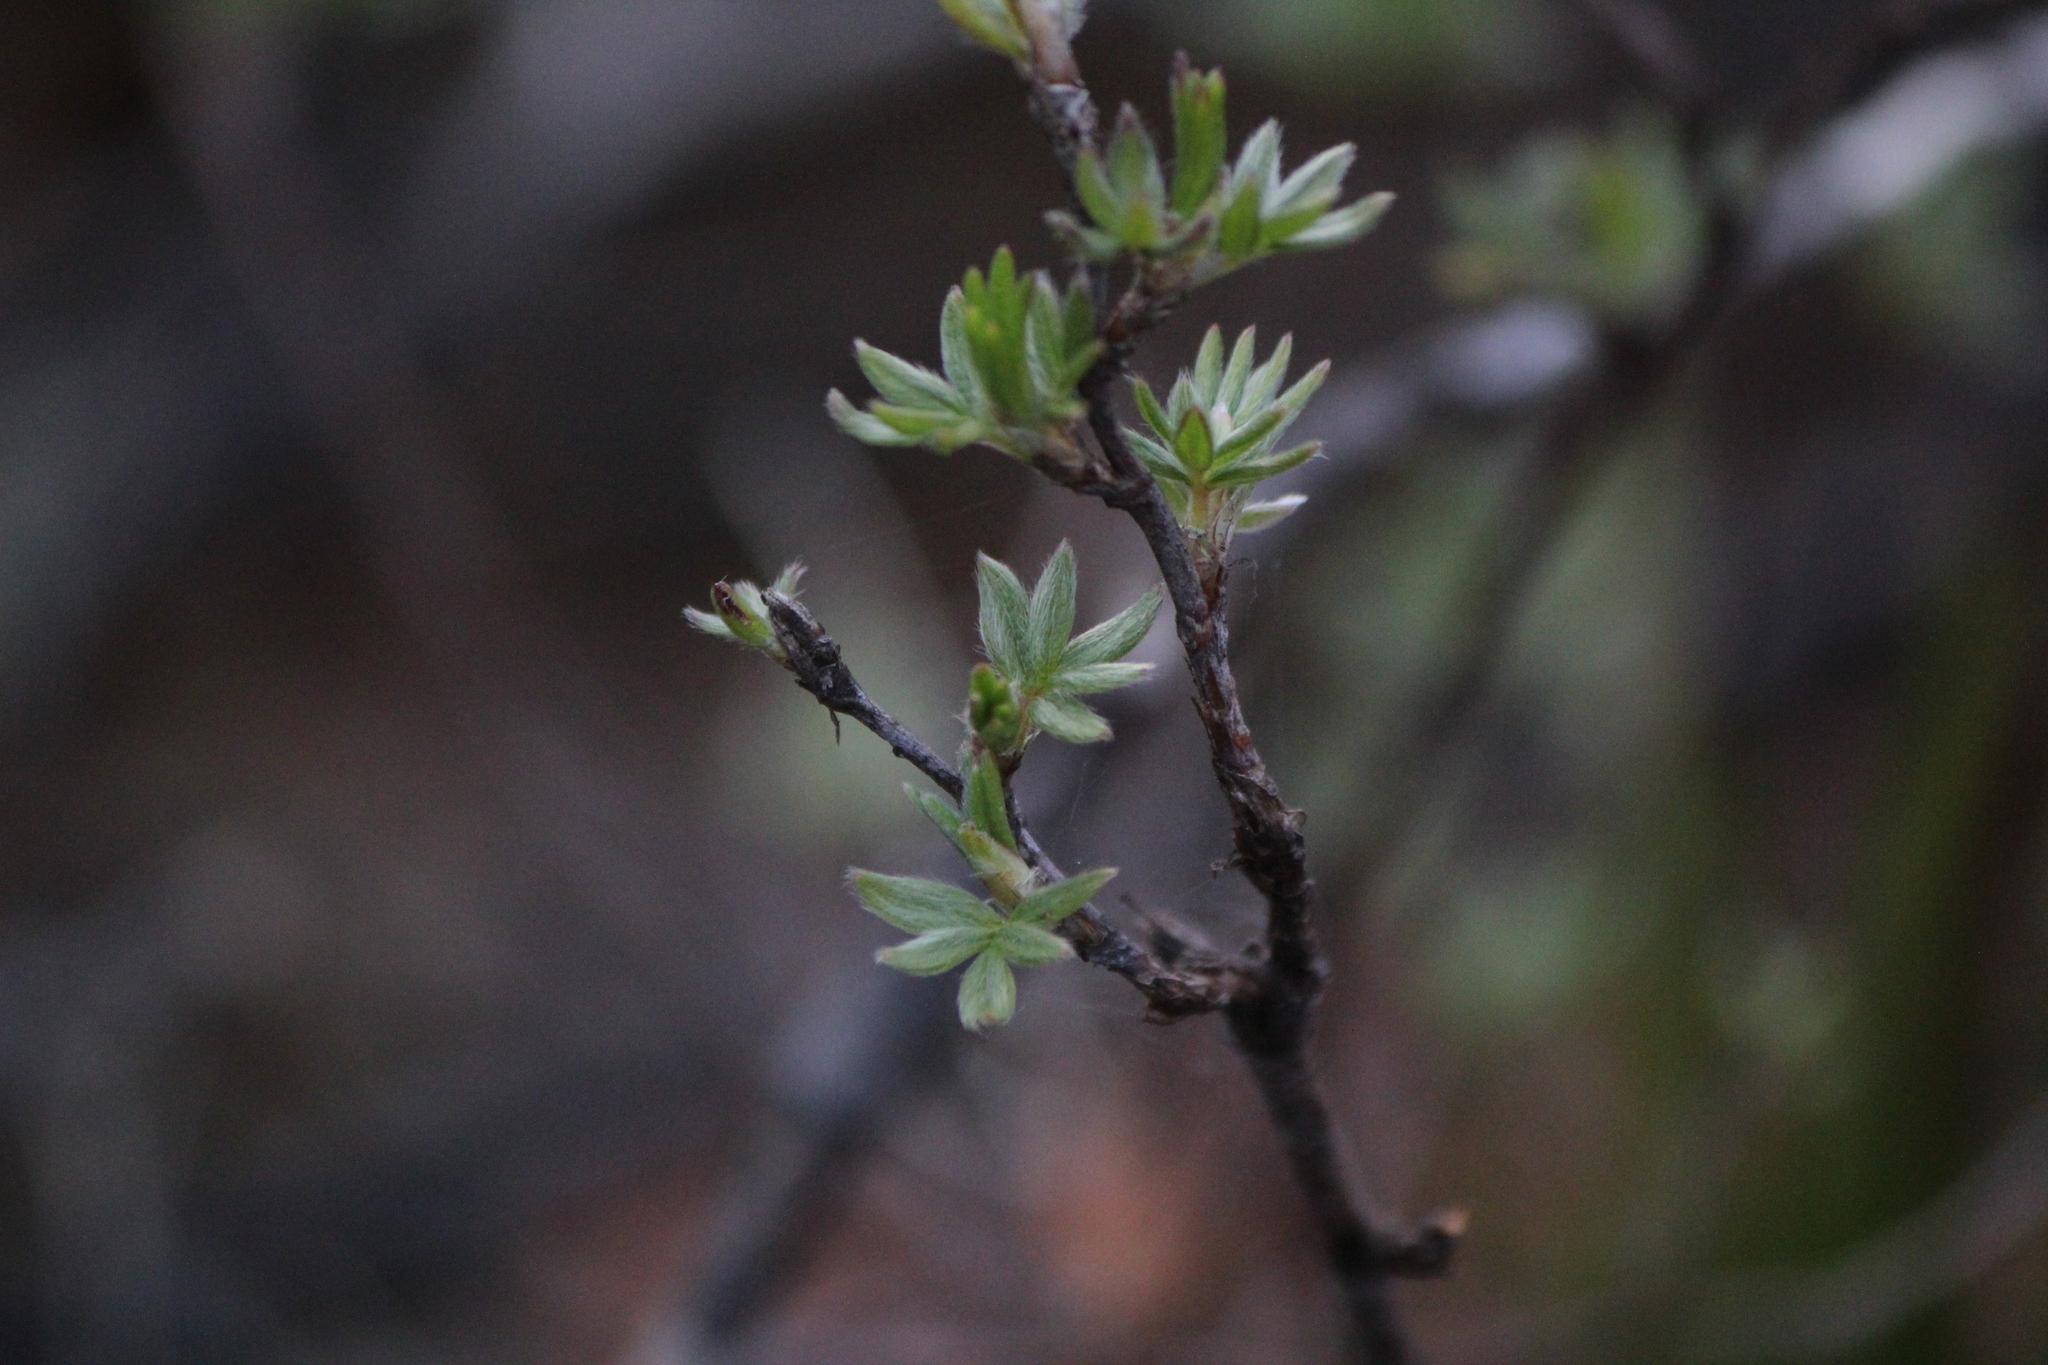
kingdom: Plantae
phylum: Tracheophyta
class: Magnoliopsida
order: Rosales
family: Rosaceae
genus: Dasiphora
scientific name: Dasiphora fruticosa
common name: Shrubby cinquefoil
